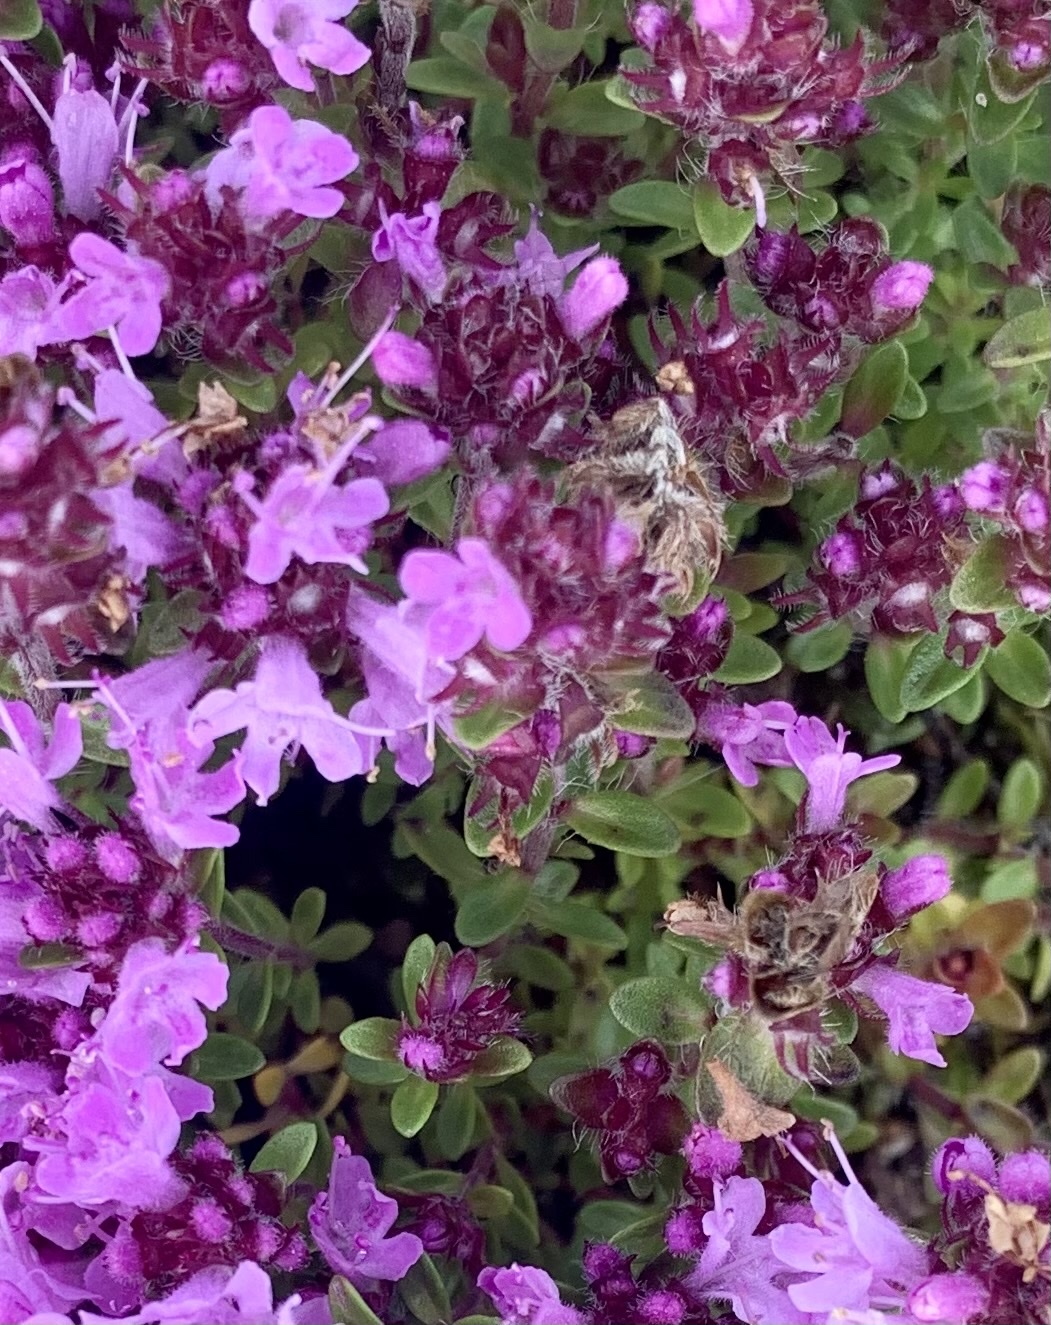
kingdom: Plantae
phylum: Tracheophyta
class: Magnoliopsida
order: Lamiales
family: Lamiaceae
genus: Thymus
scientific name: Thymus serpyllum
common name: Breckland thyme
